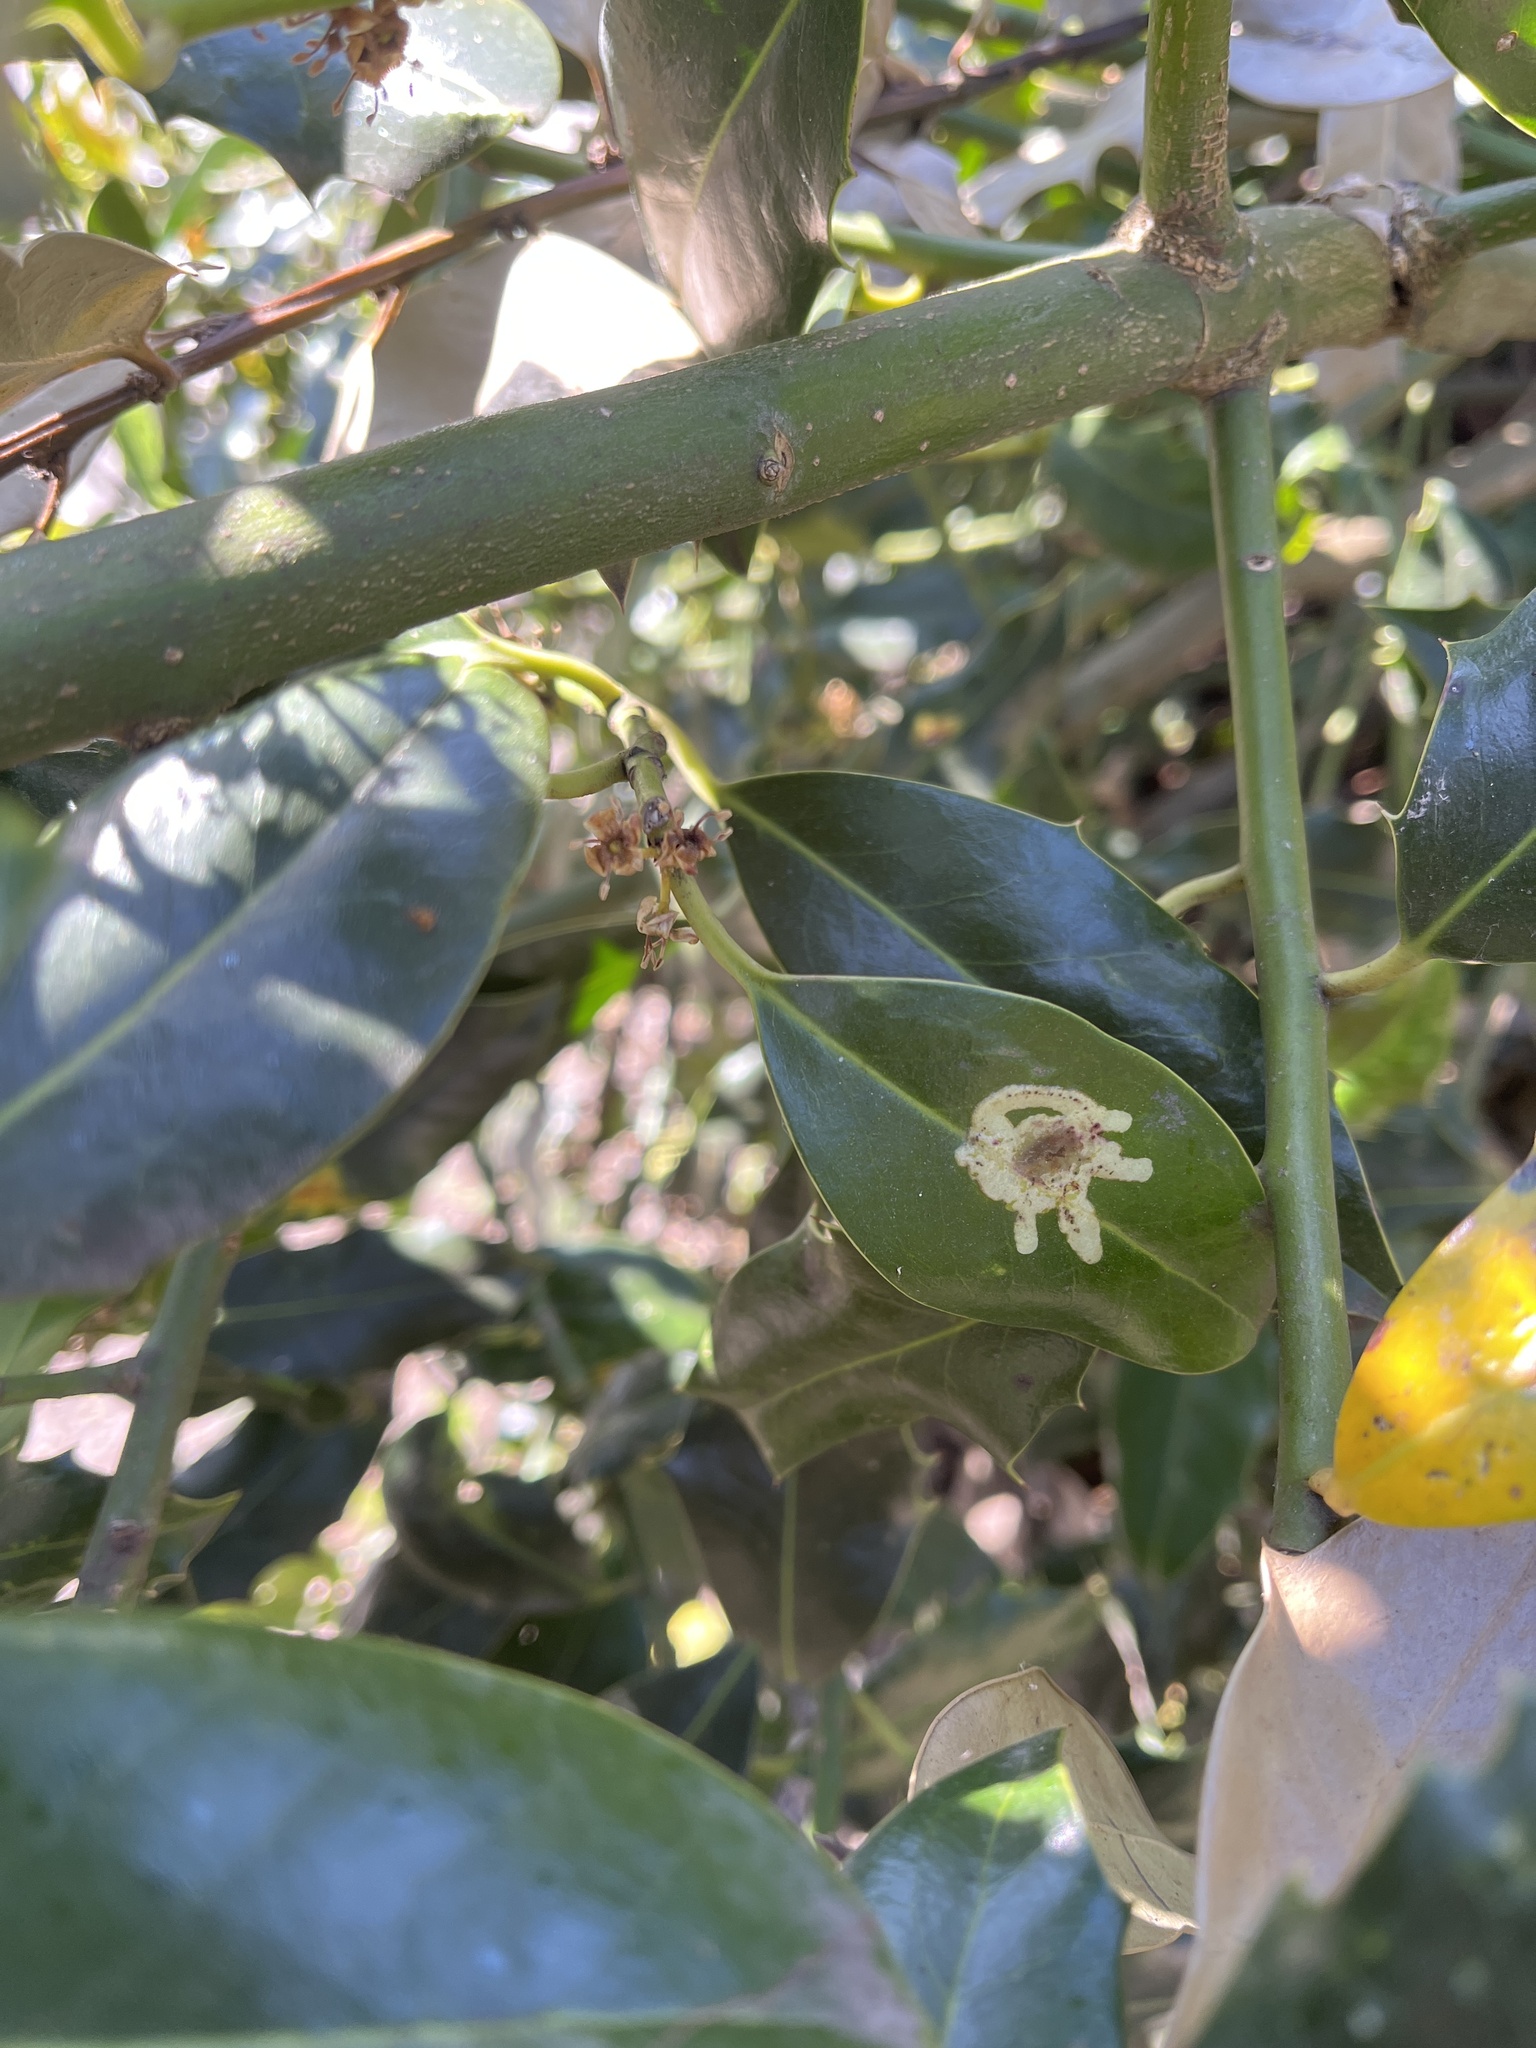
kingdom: Animalia
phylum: Arthropoda
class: Insecta
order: Diptera
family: Agromyzidae
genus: Phytomyza
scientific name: Phytomyza ilicis
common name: Holly leafminer
